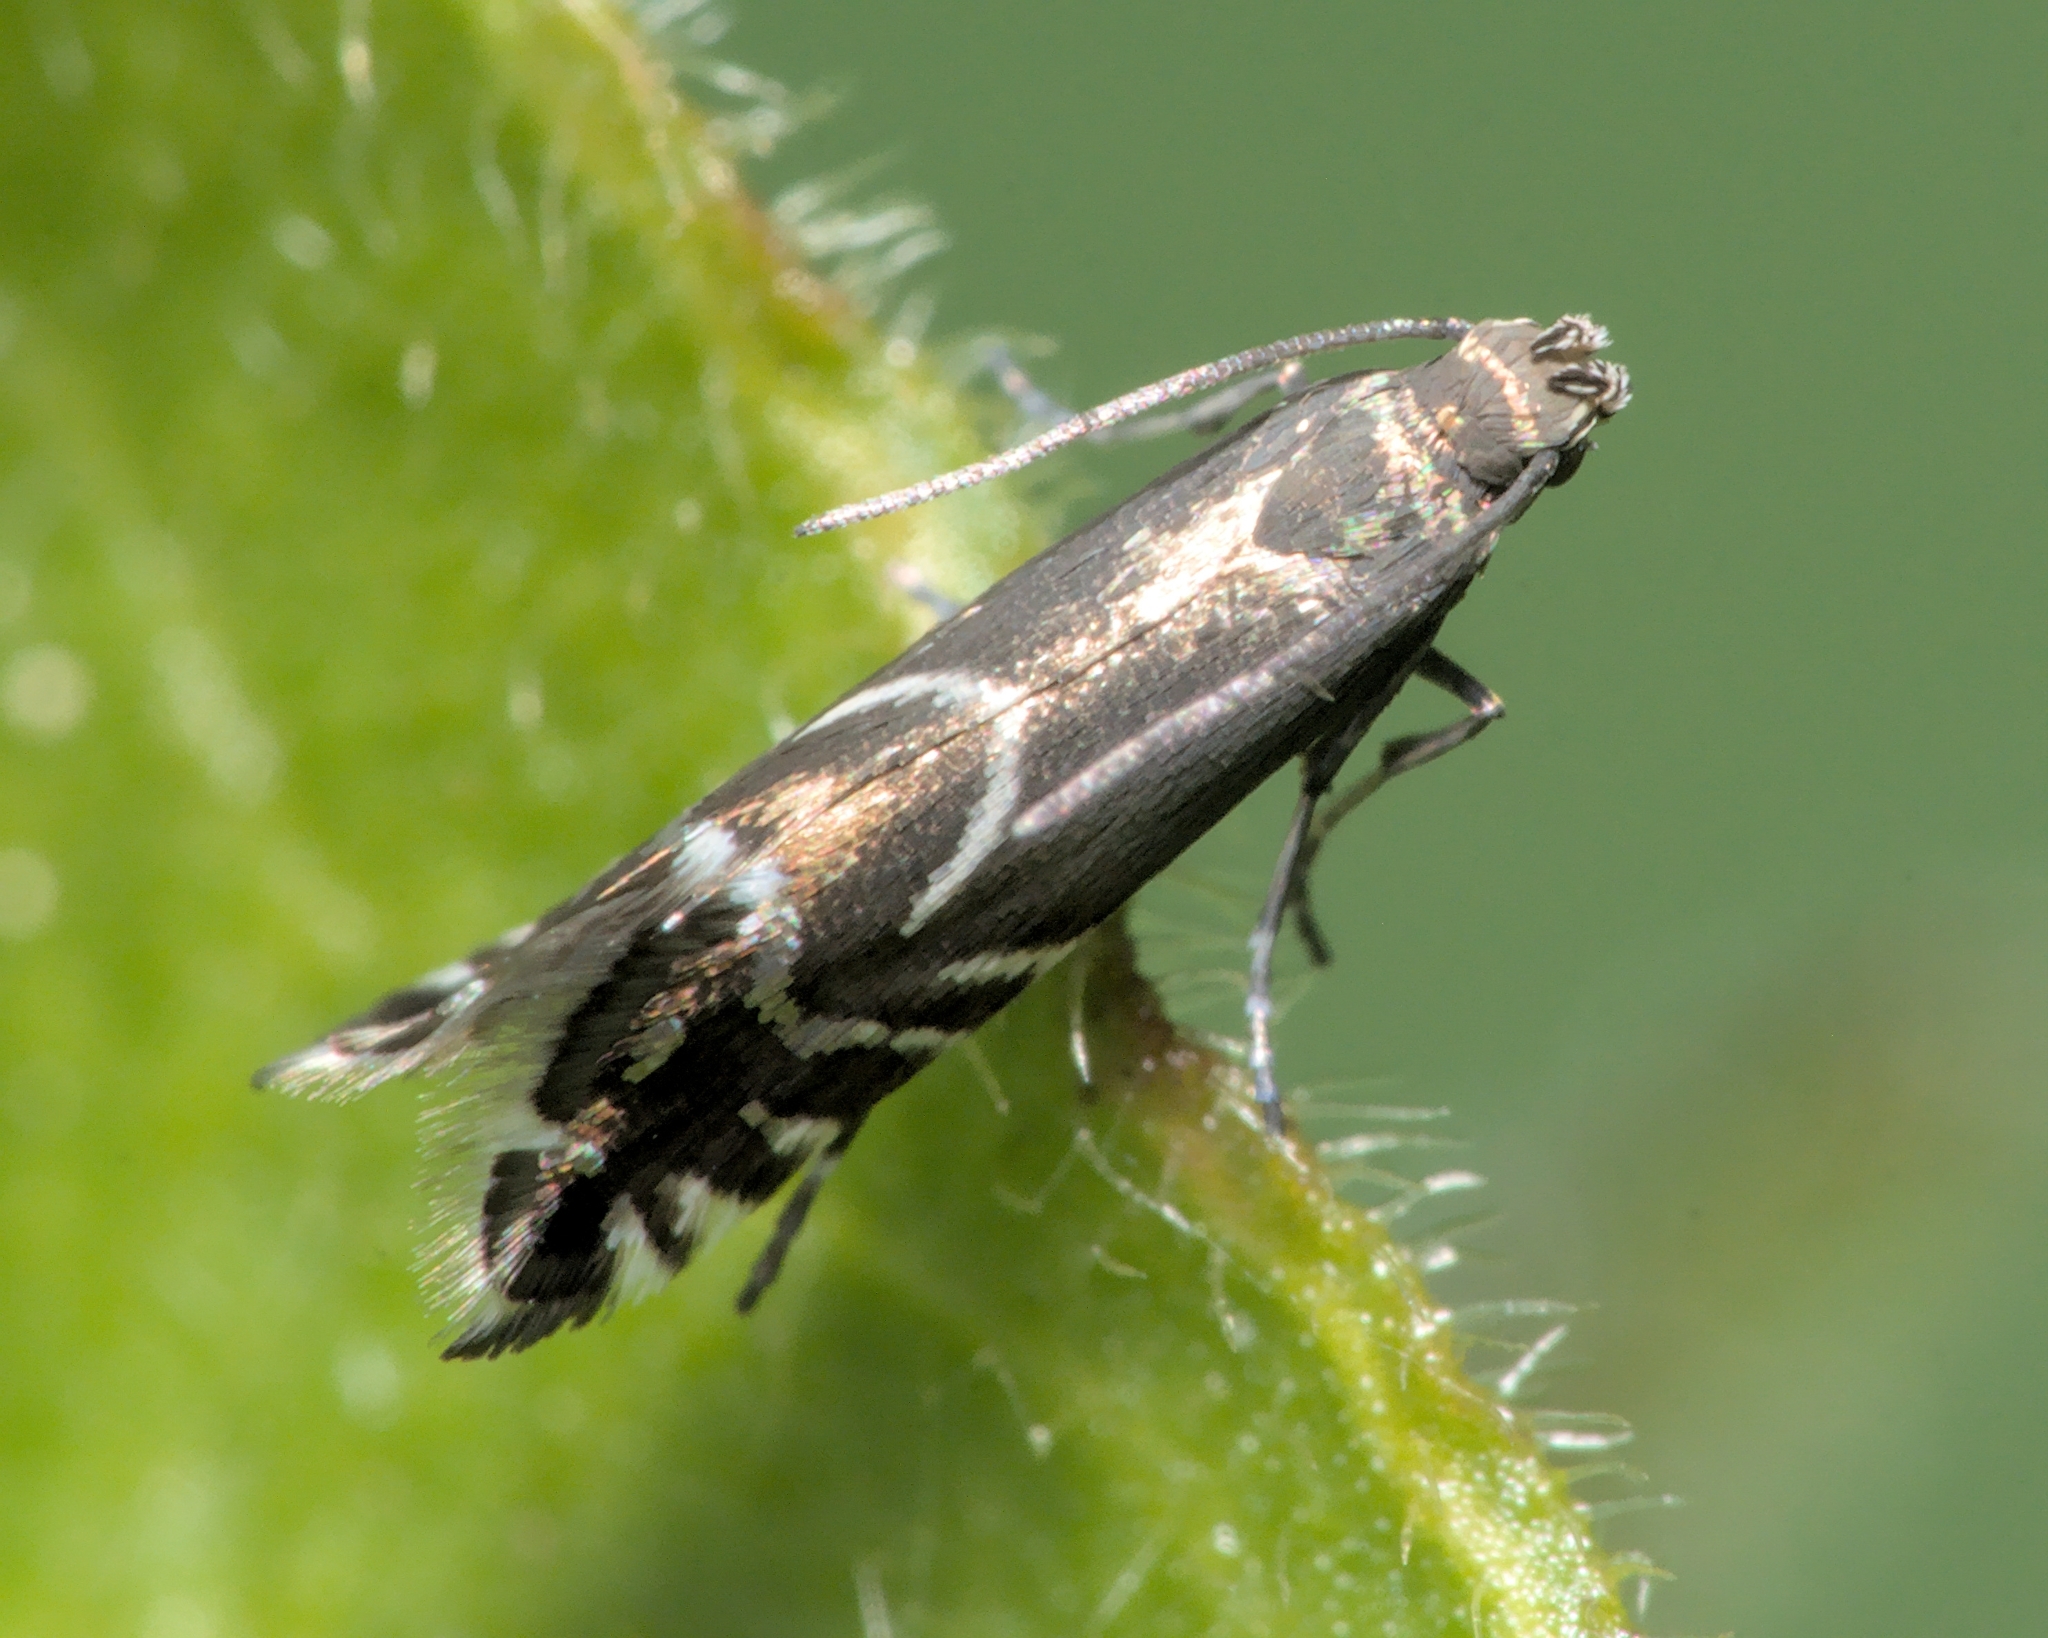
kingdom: Animalia
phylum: Arthropoda
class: Insecta
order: Lepidoptera
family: Glyphipterigidae
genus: Glyphipterix
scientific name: Glyphipterix simpliciella
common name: Cocksfoot moth
